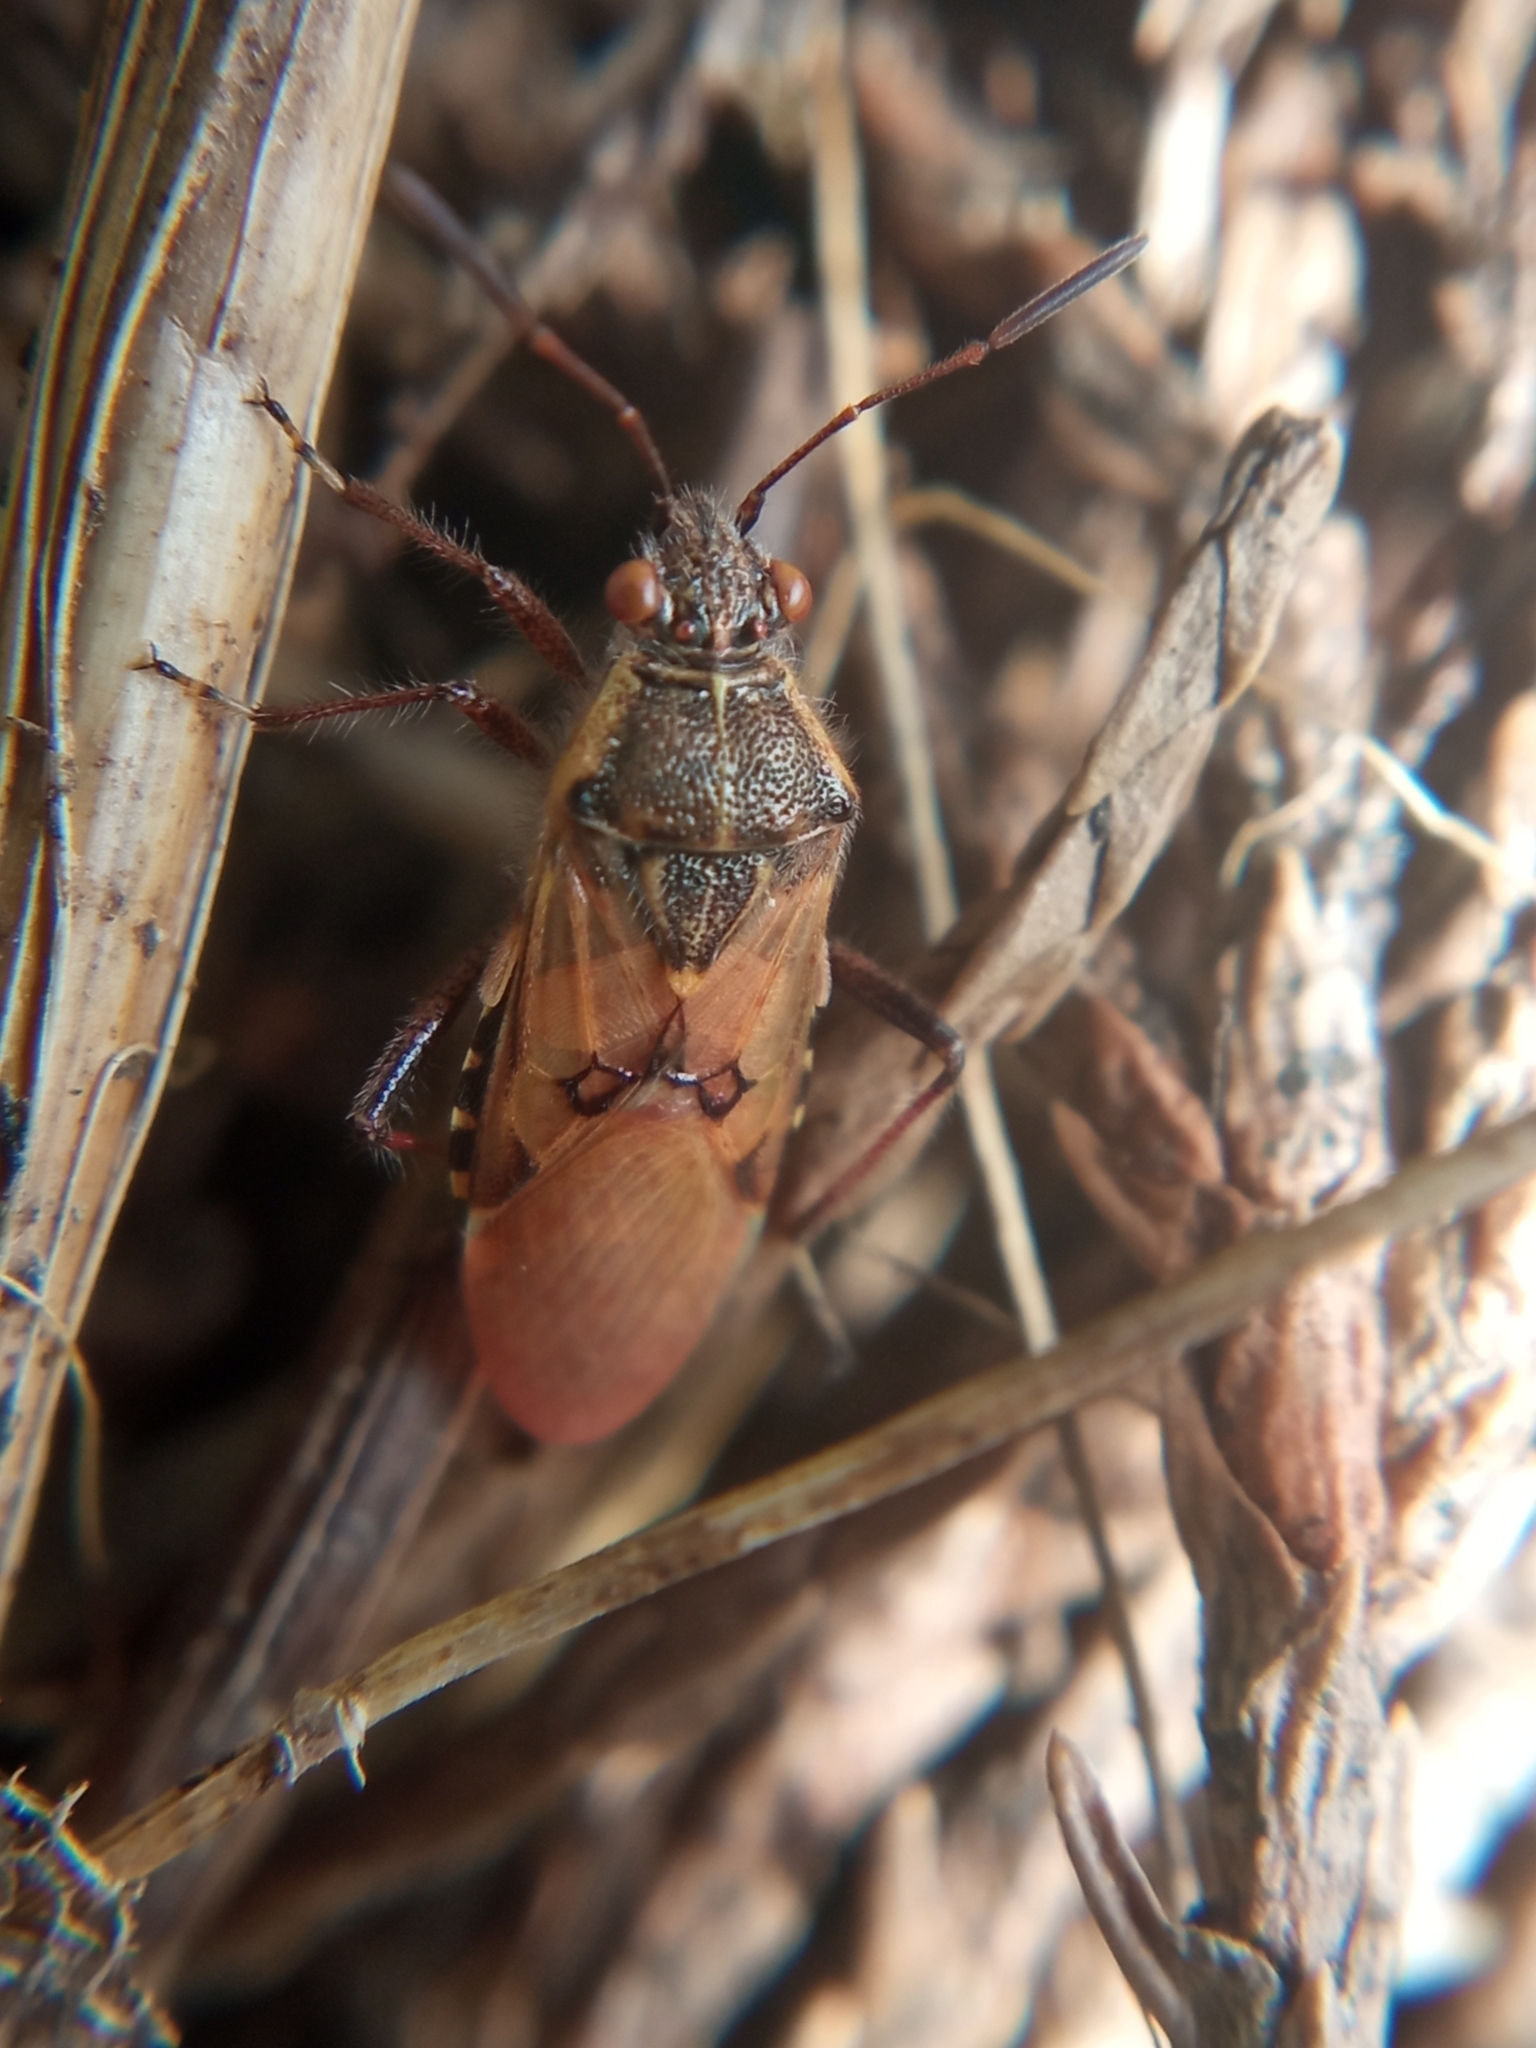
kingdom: Animalia
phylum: Arthropoda
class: Insecta
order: Hemiptera
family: Rhopalidae
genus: Liorhyssus
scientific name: Liorhyssus hyalinus
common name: Scentless plant bug
